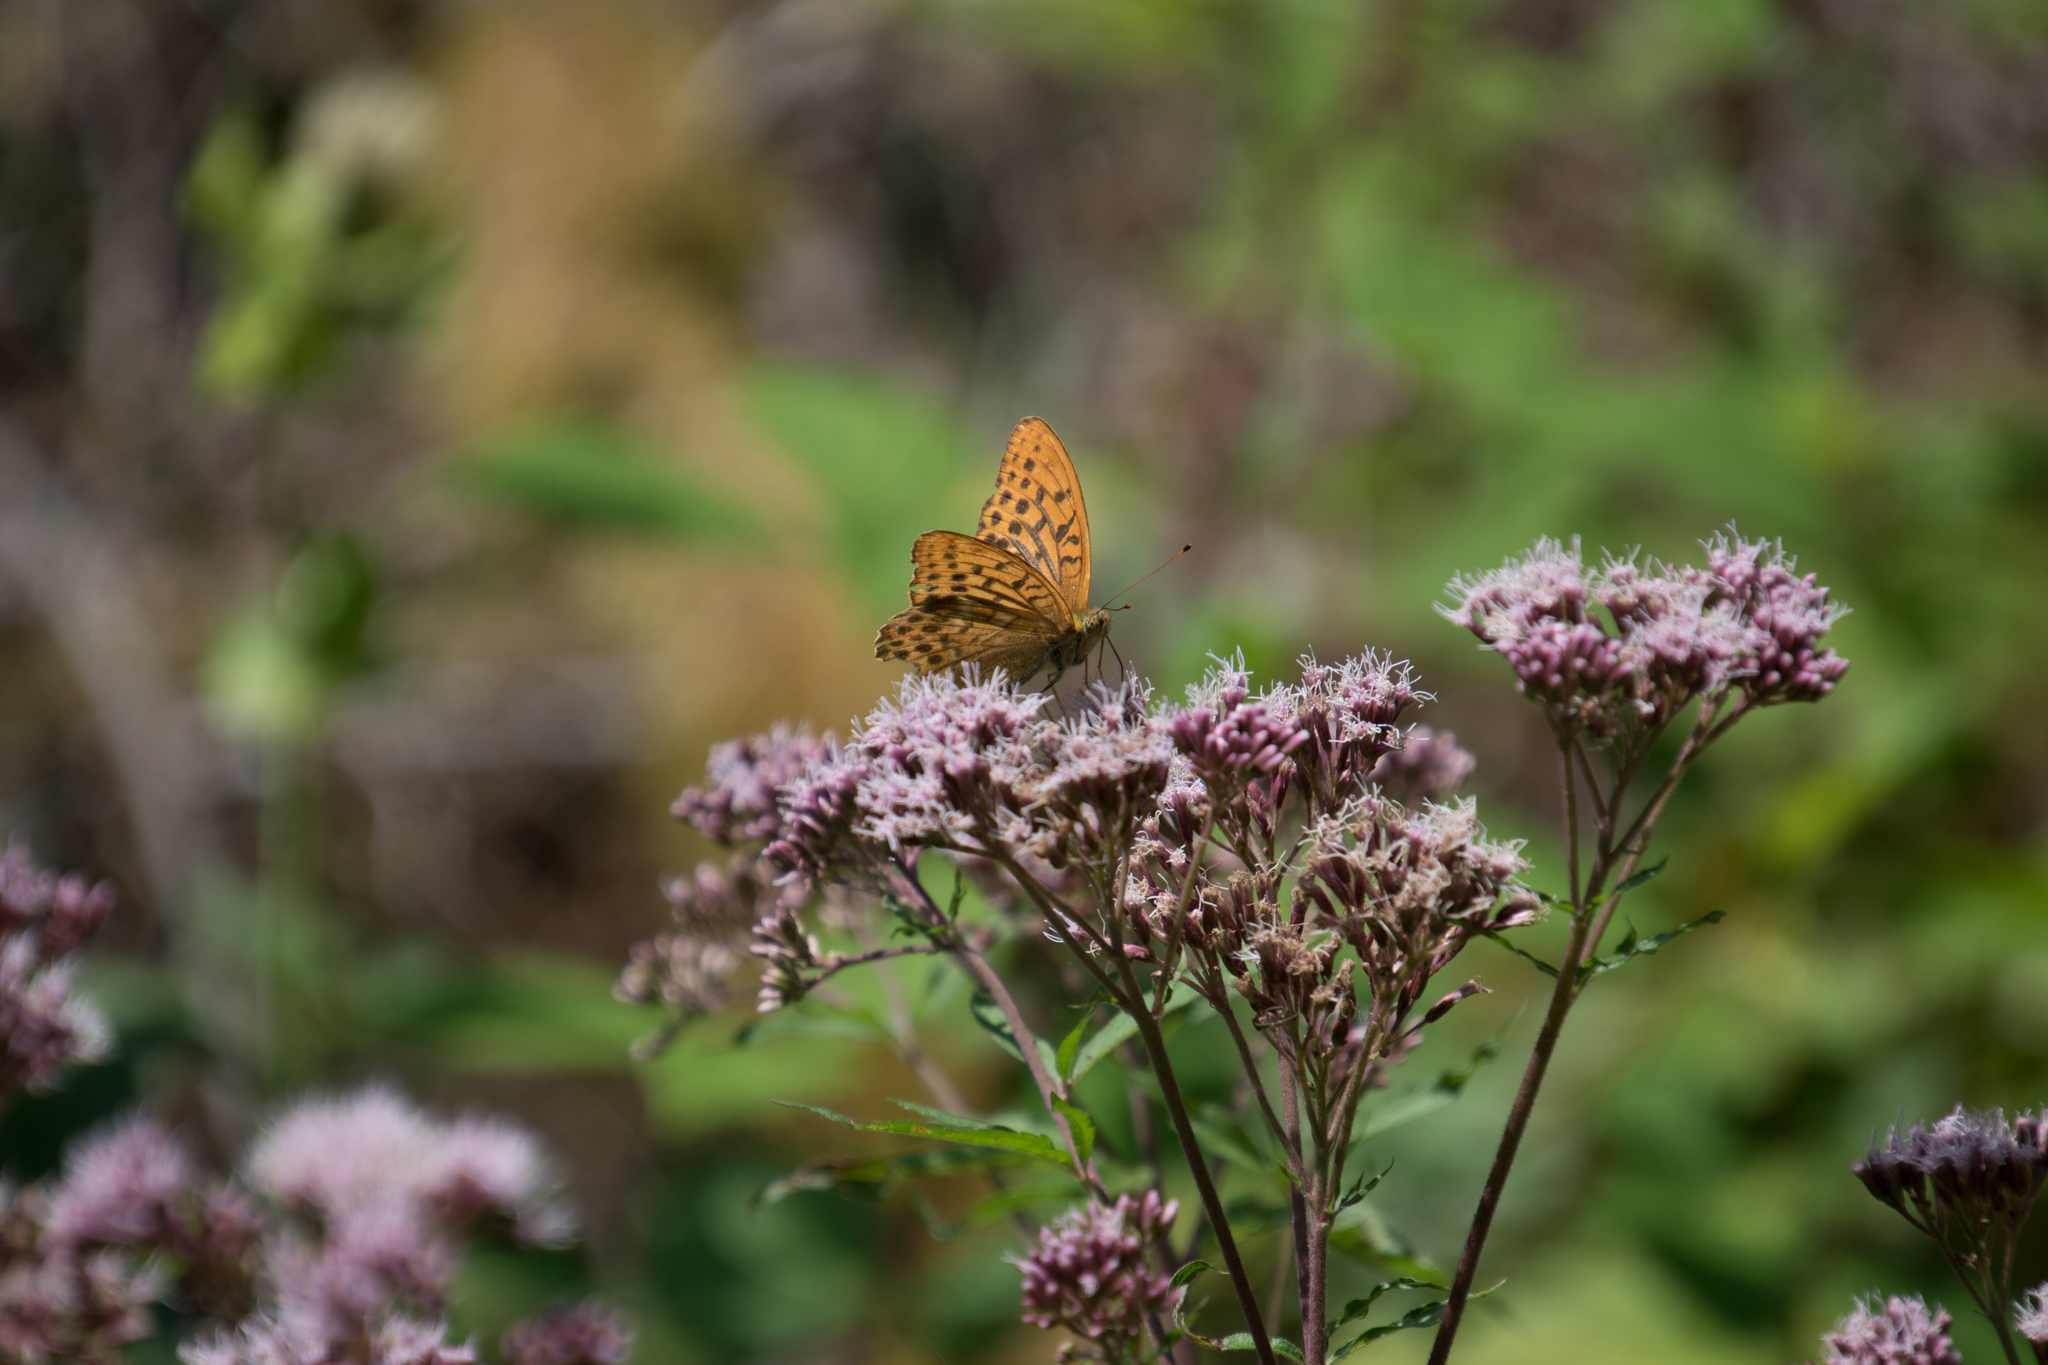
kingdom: Animalia
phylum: Arthropoda
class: Insecta
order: Lepidoptera
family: Nymphalidae
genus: Argynnis
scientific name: Argynnis paphia
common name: Silver-washed fritillary
